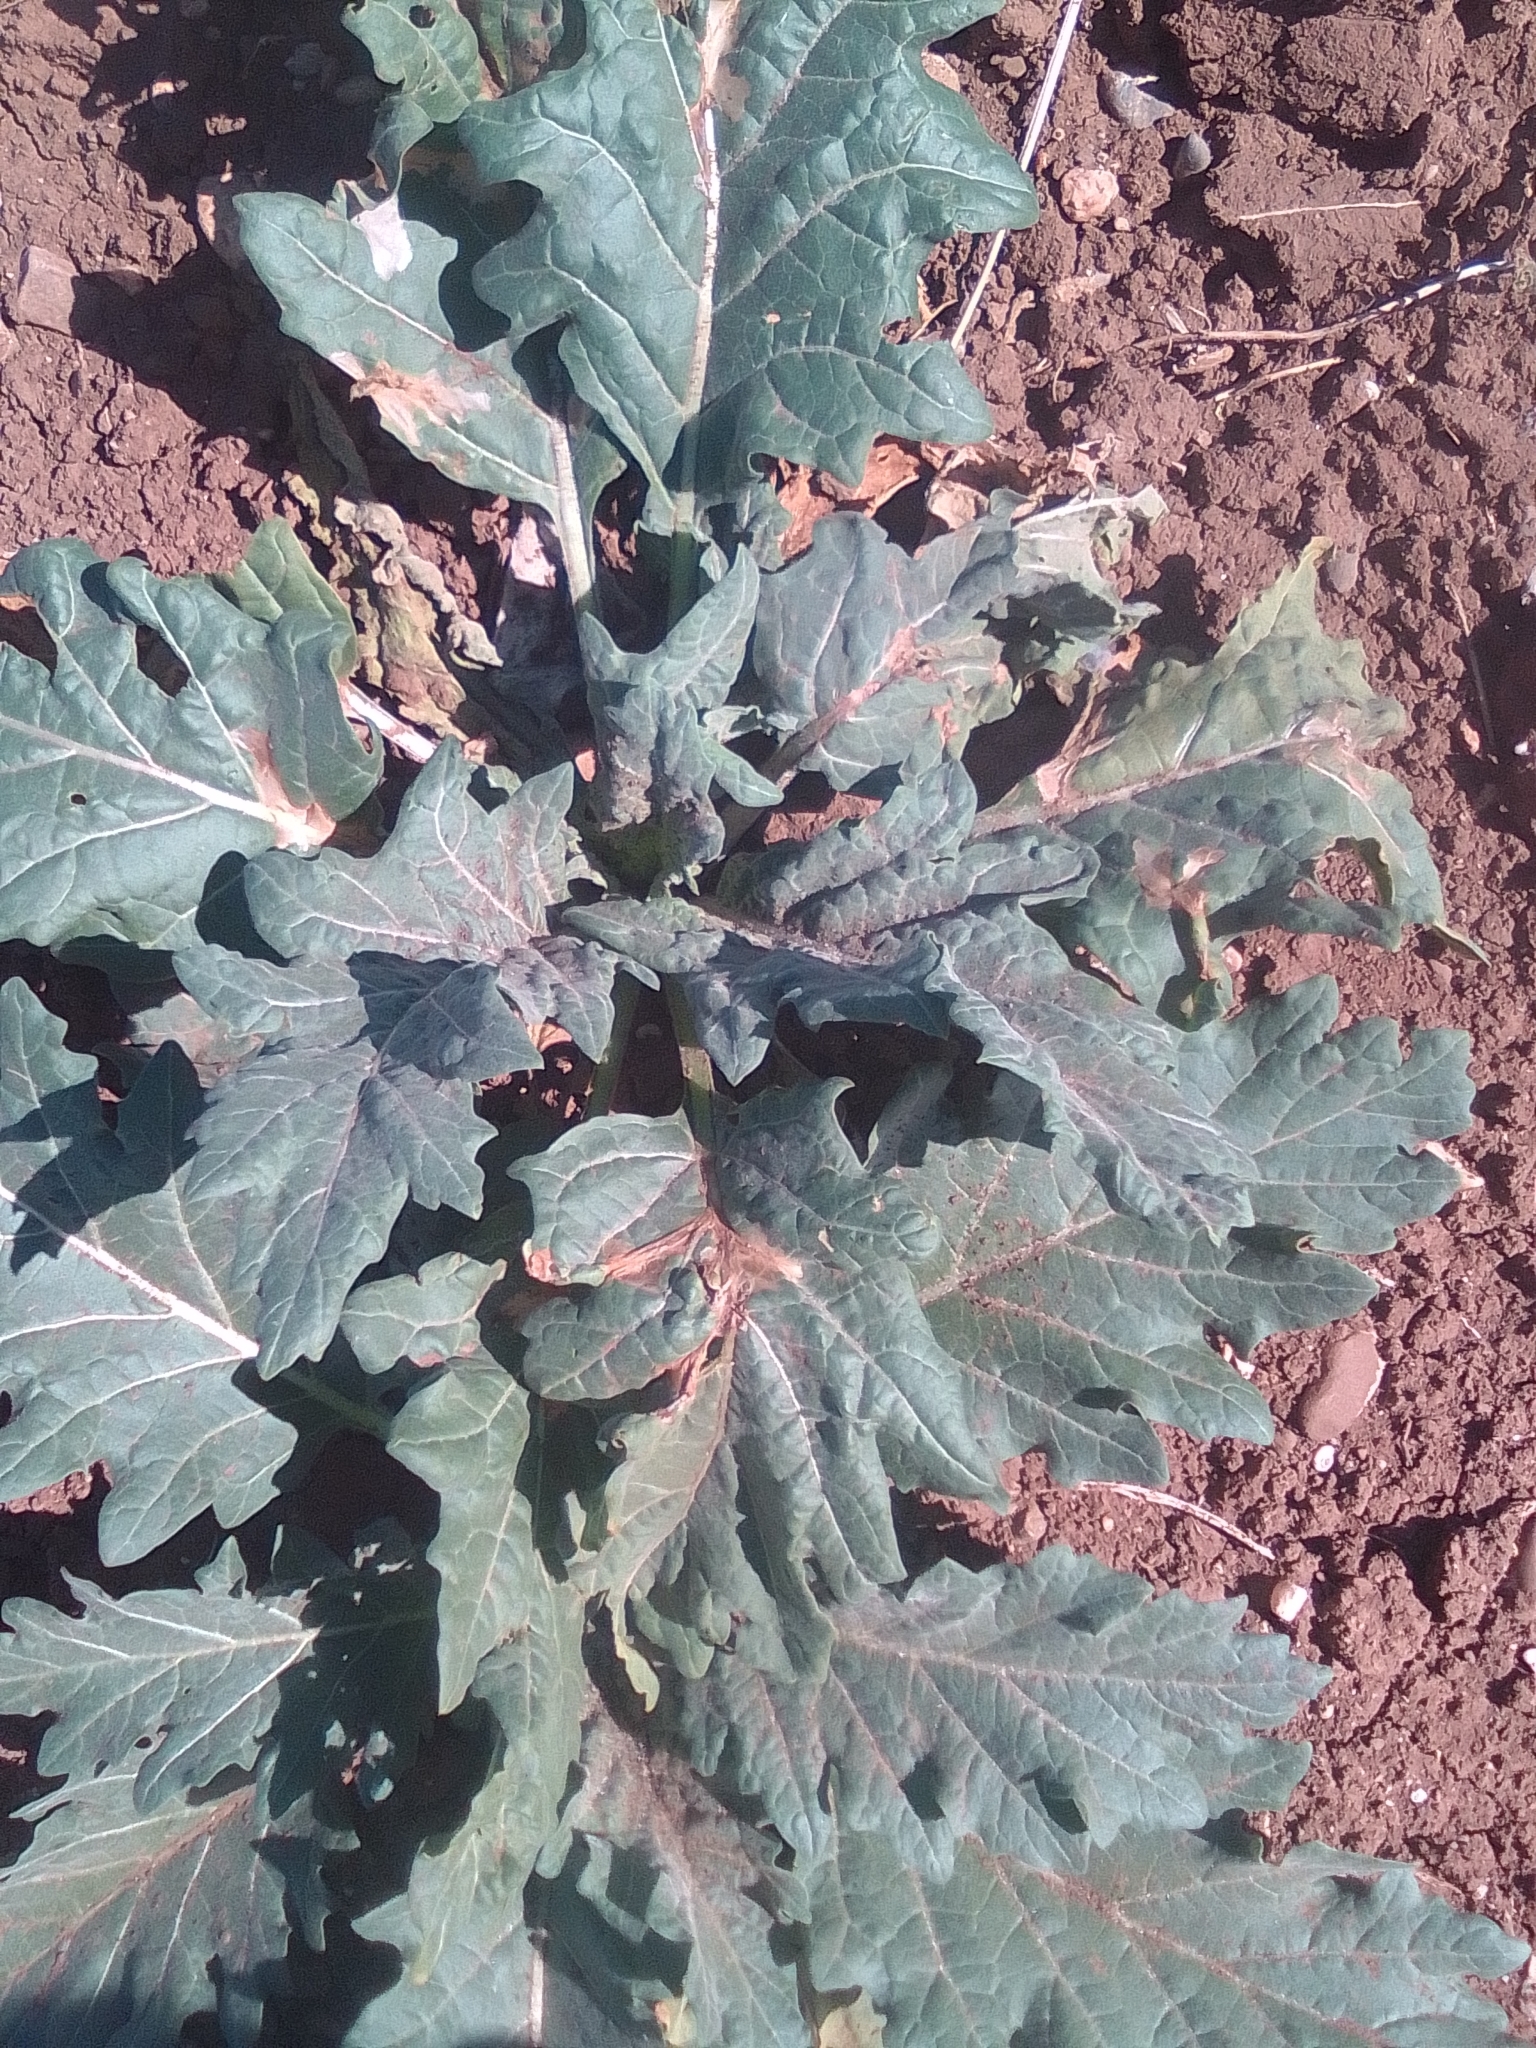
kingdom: Plantae
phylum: Tracheophyta
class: Magnoliopsida
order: Solanales
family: Solanaceae
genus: Hyoscyamus
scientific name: Hyoscyamus niger
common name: Henbane
